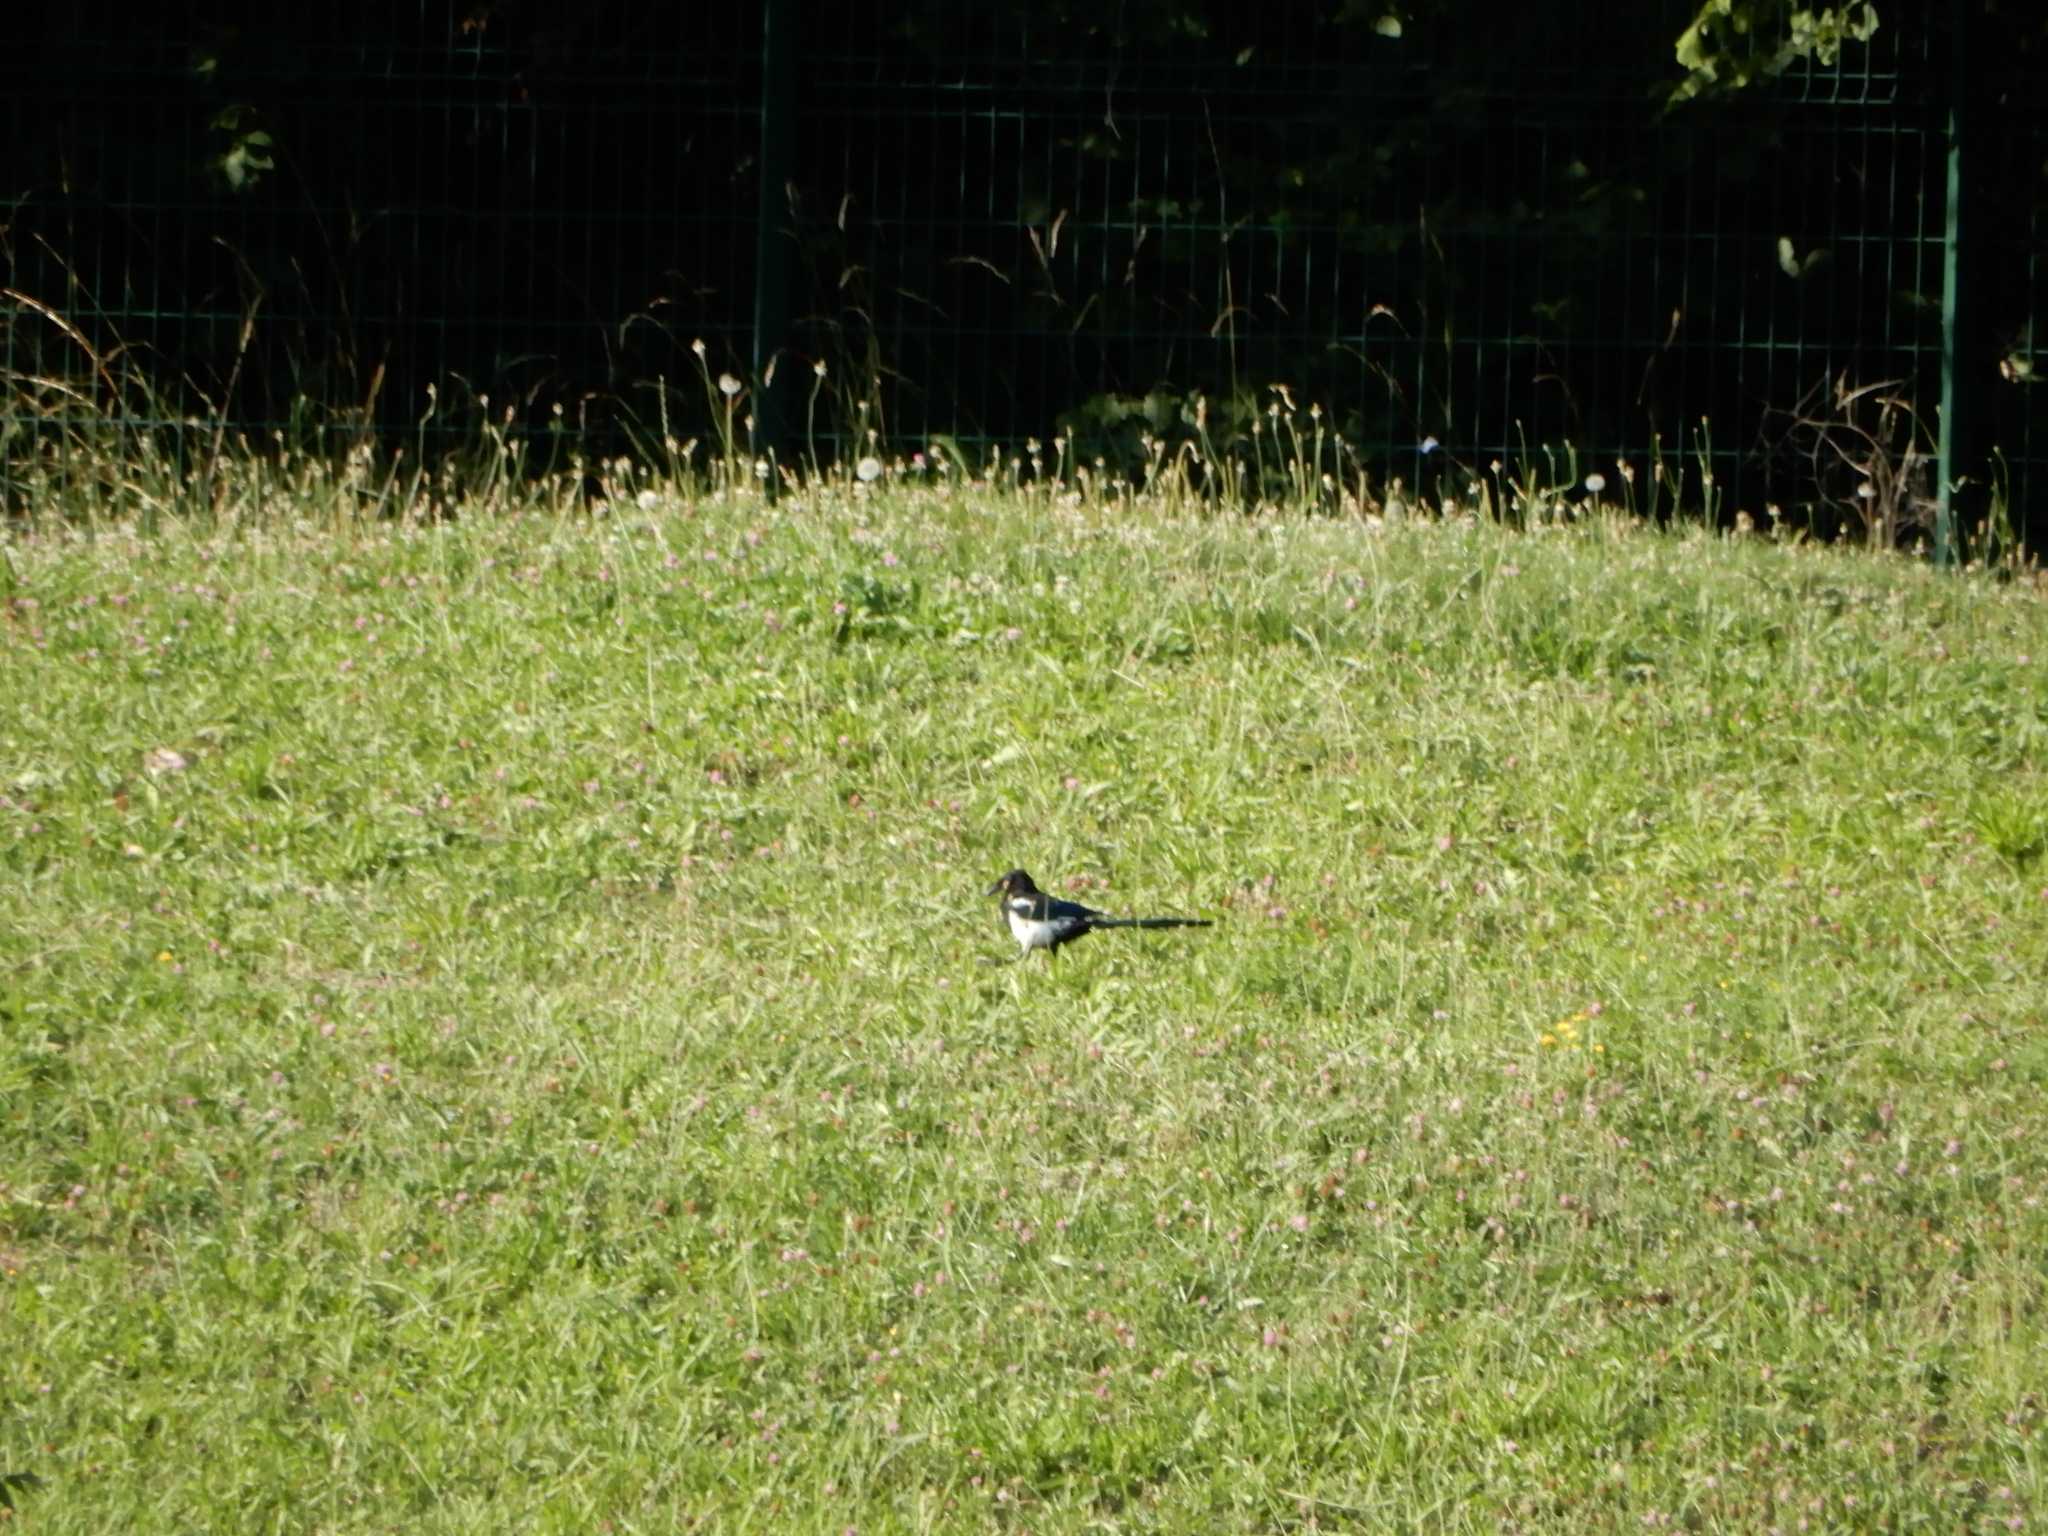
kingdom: Animalia
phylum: Chordata
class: Aves
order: Passeriformes
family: Corvidae
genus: Pica
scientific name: Pica pica
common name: Eurasian magpie
